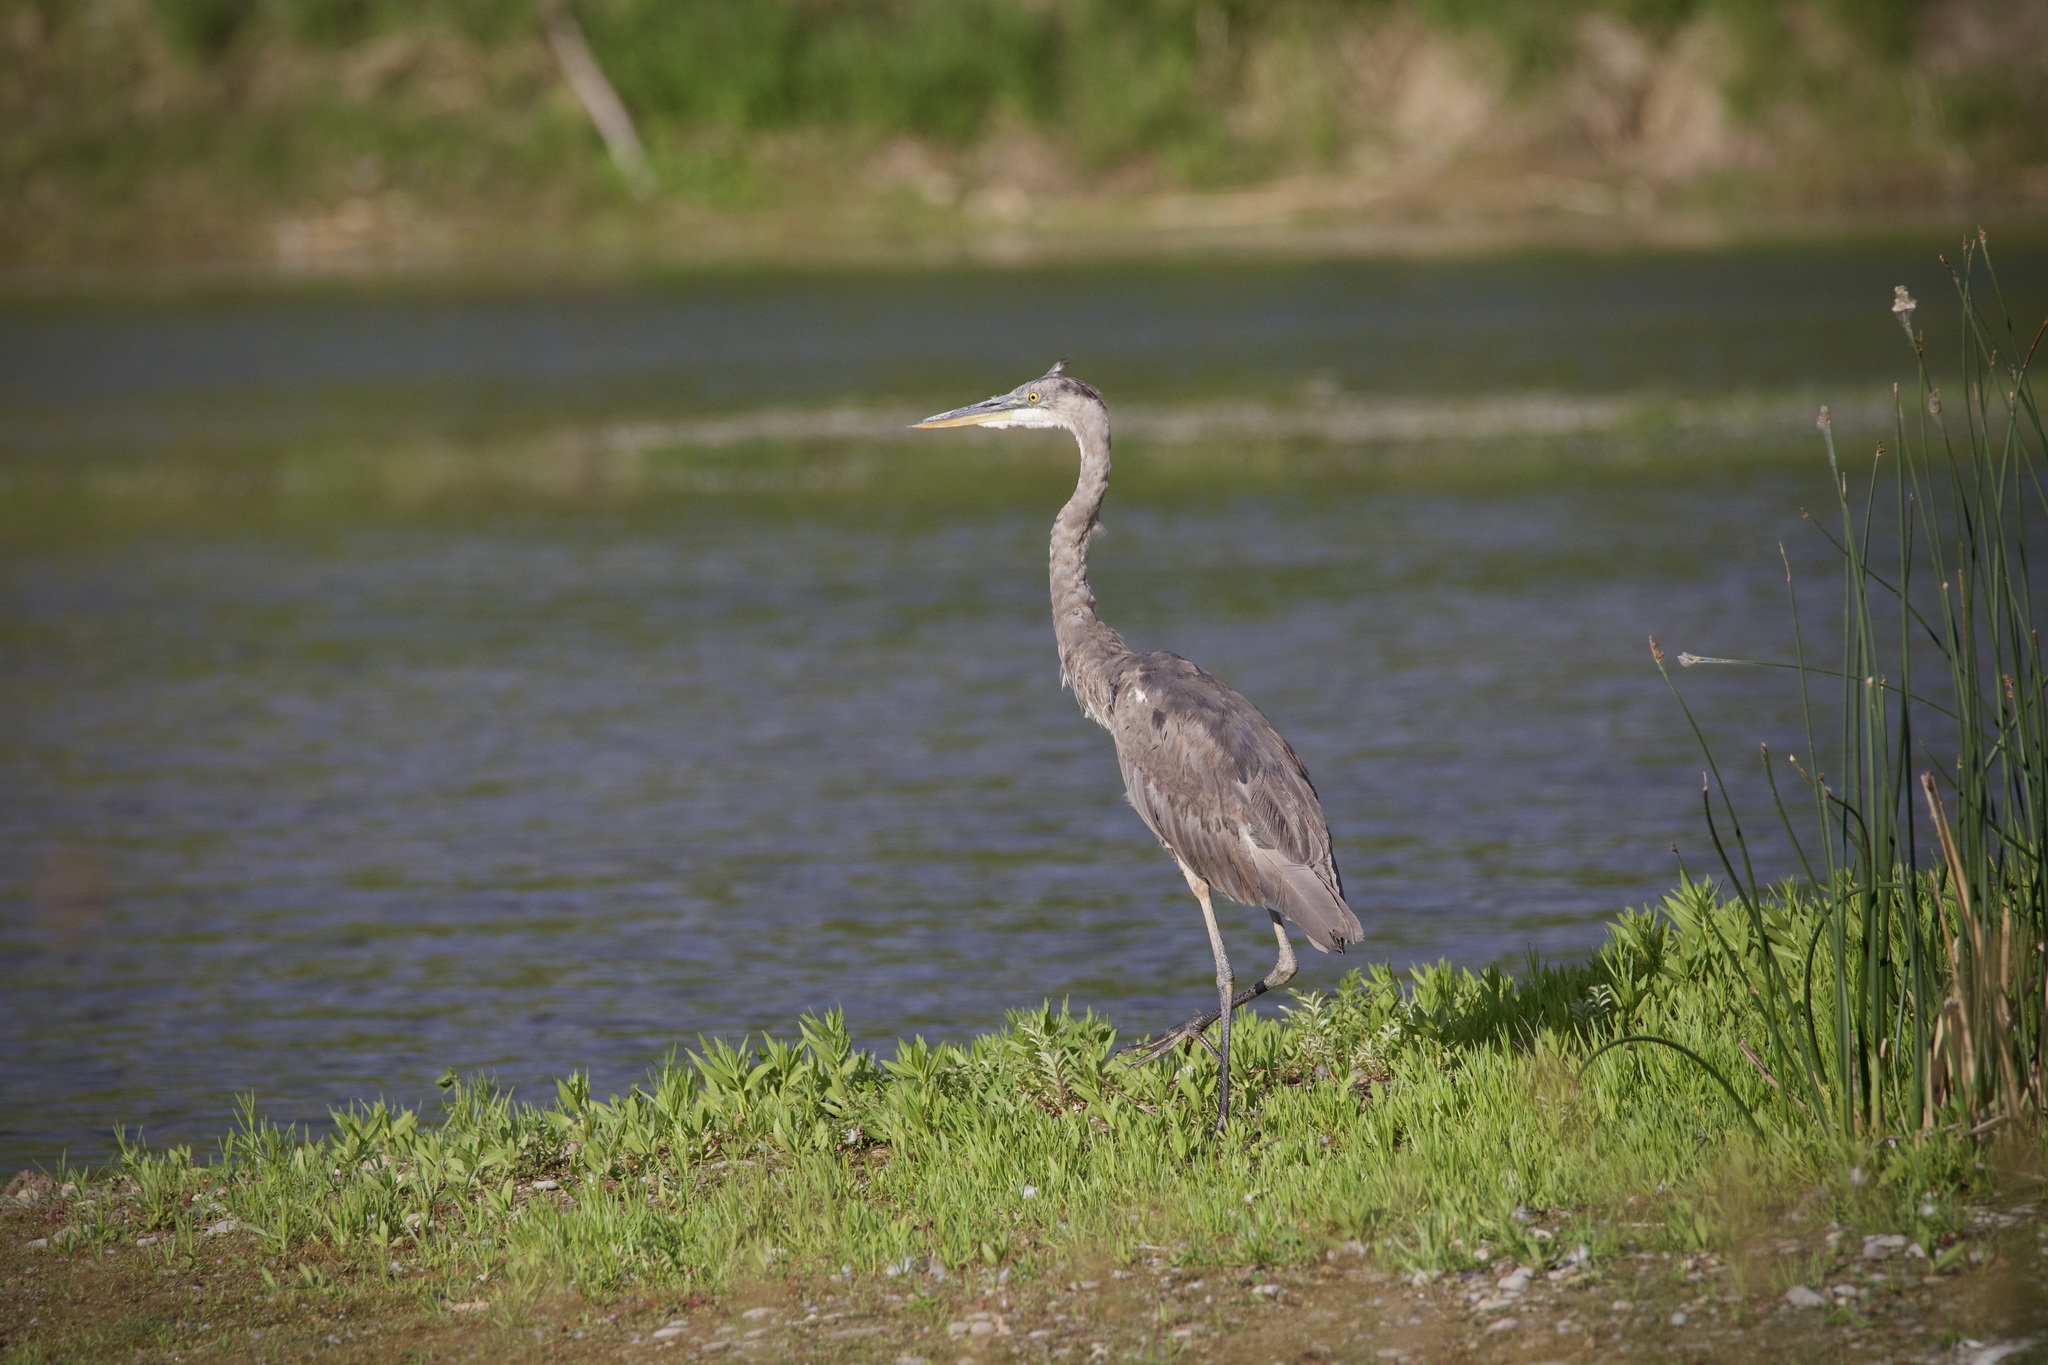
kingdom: Animalia
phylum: Chordata
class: Aves
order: Pelecaniformes
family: Ardeidae
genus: Ardea
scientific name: Ardea herodias
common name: Great blue heron
